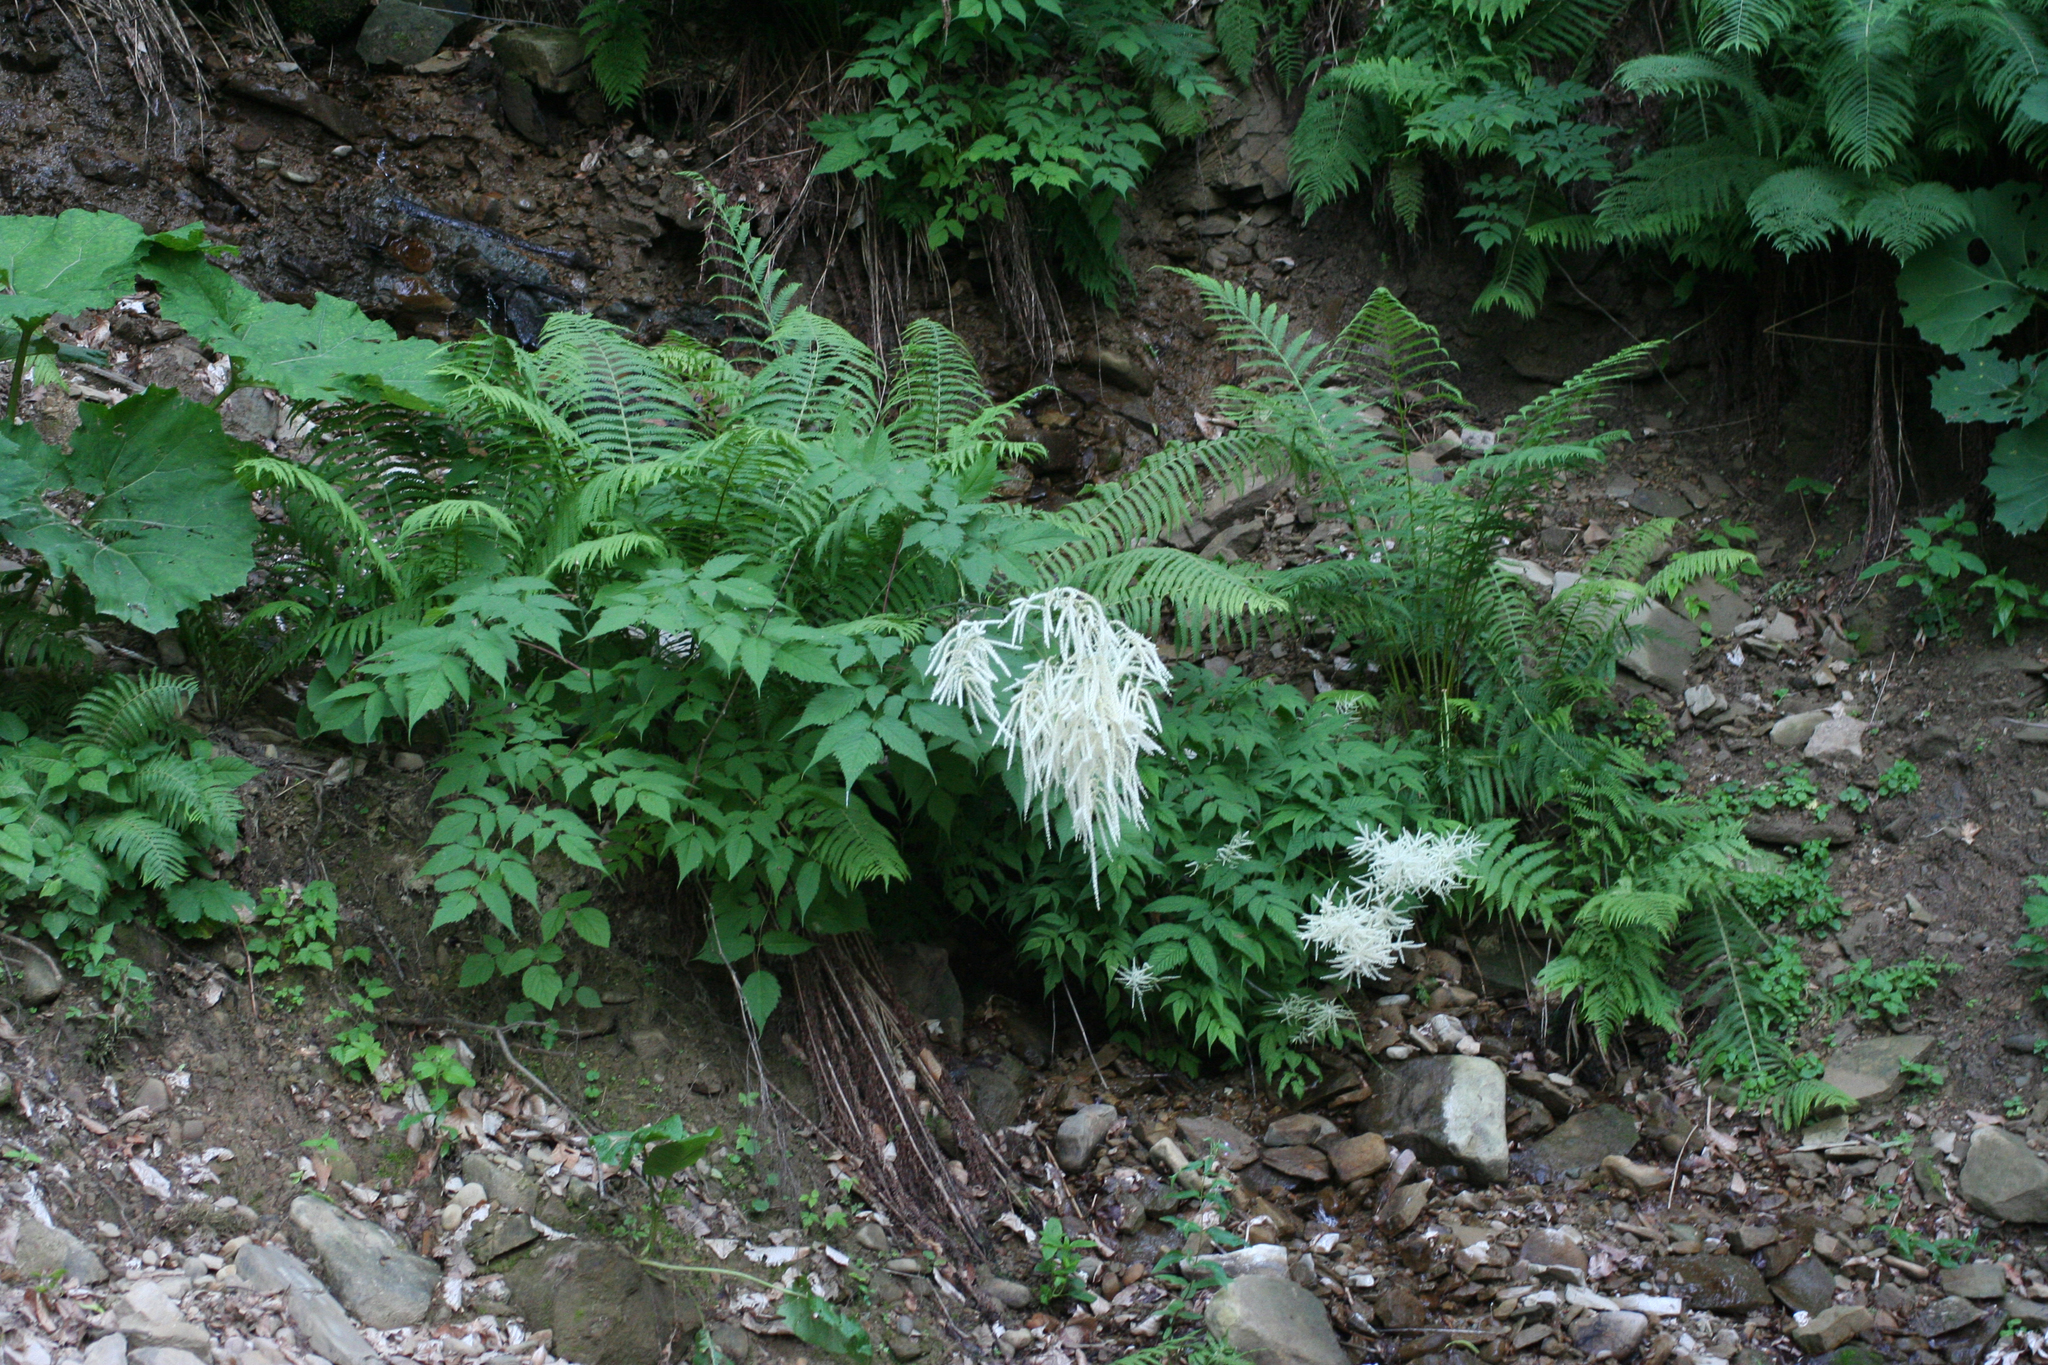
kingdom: Plantae
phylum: Tracheophyta
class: Magnoliopsida
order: Rosales
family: Rosaceae
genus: Aruncus
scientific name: Aruncus sylvester
